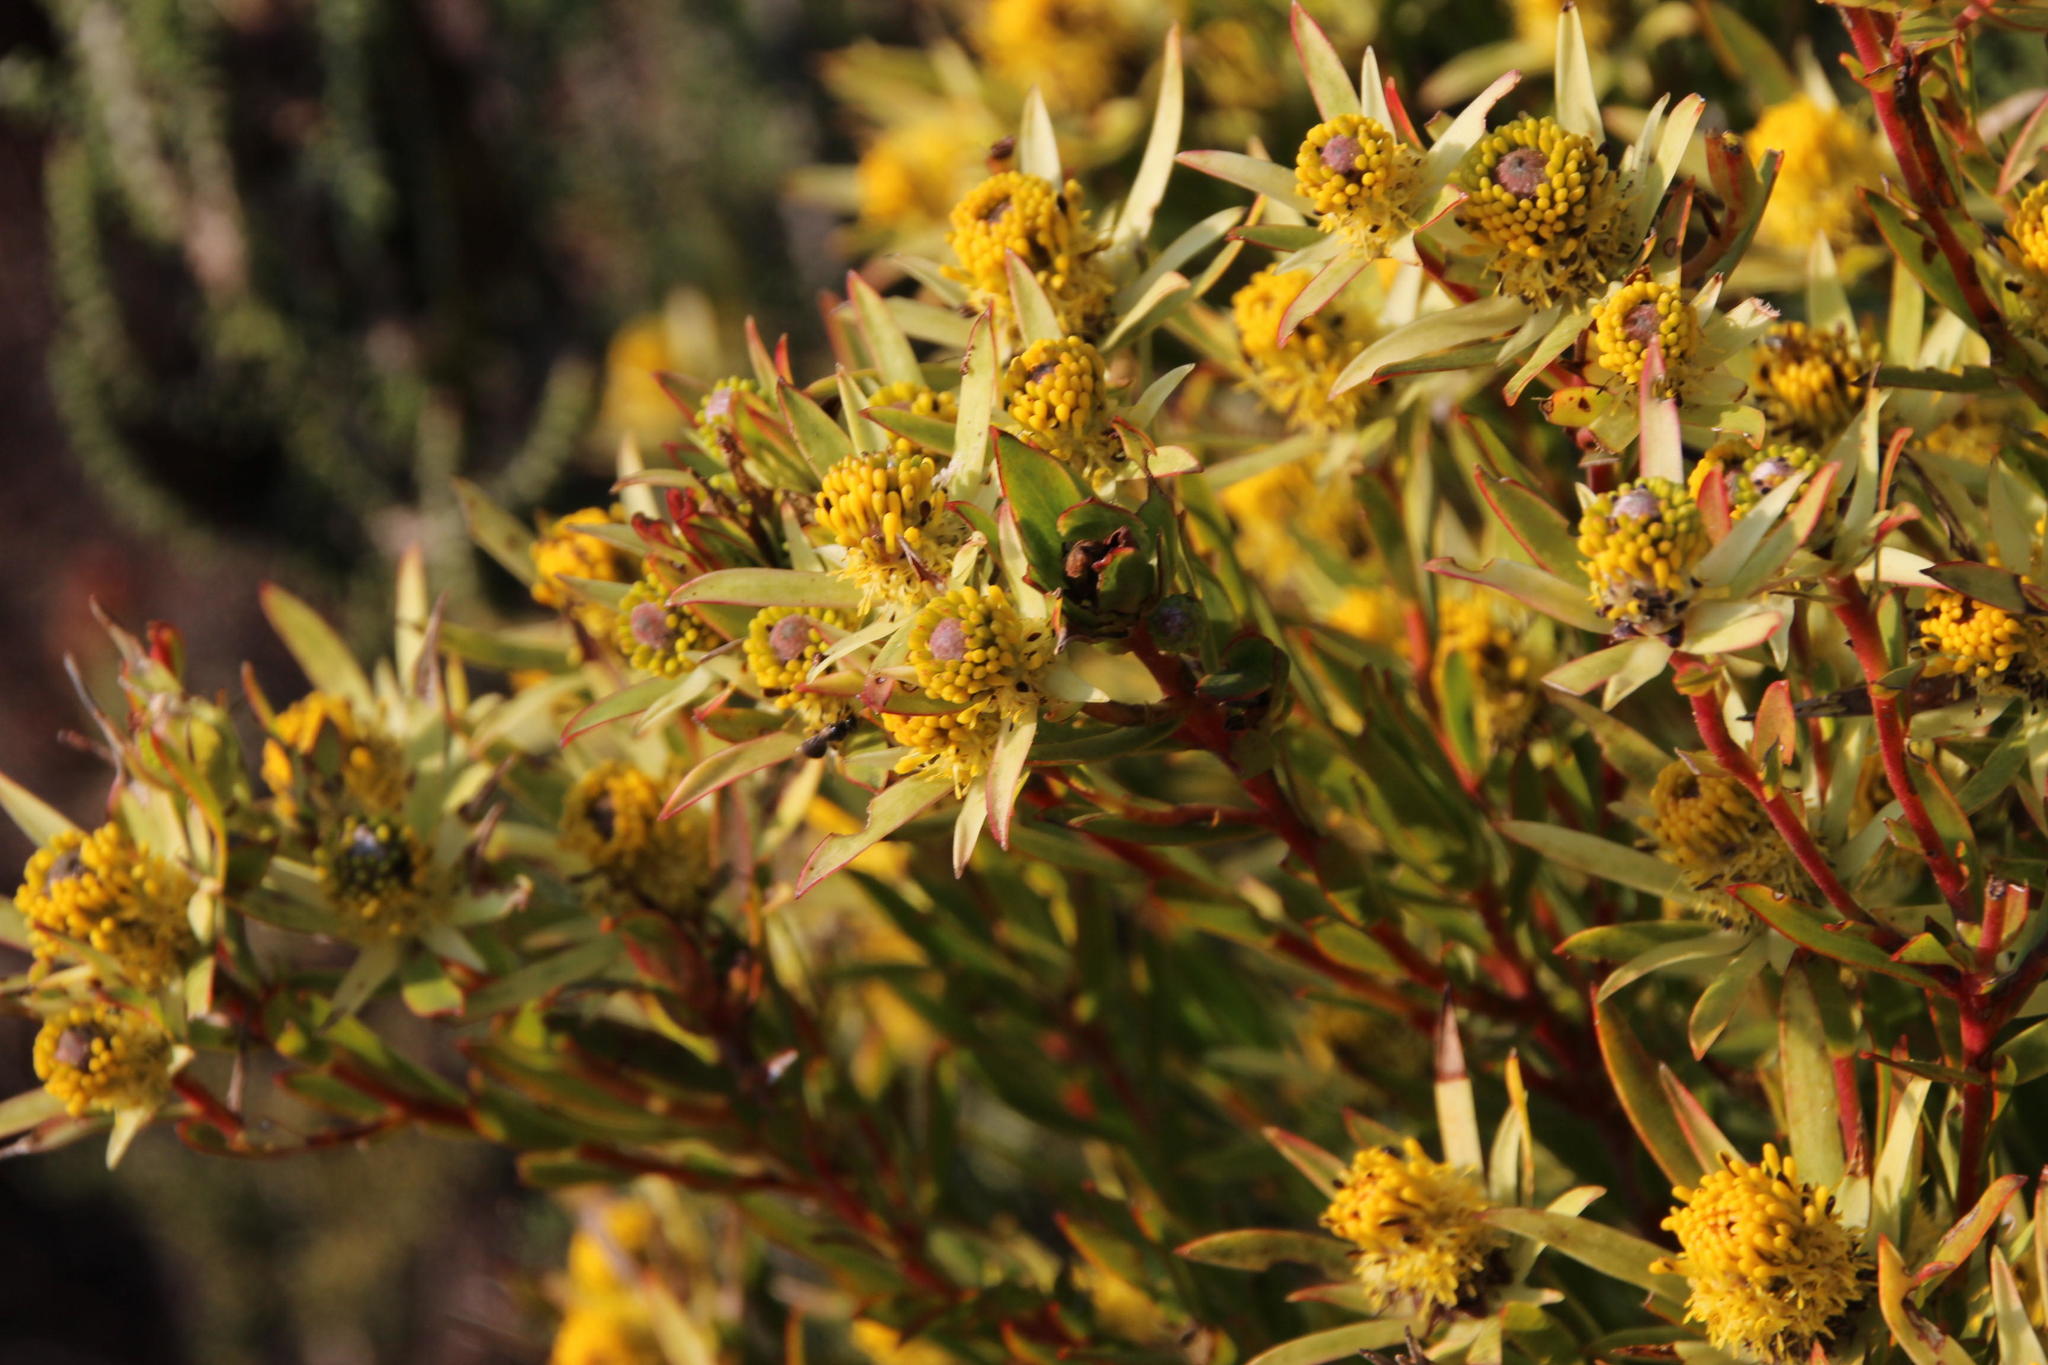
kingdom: Plantae
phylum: Tracheophyta
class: Magnoliopsida
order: Proteales
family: Proteaceae
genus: Leucadendron
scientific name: Leucadendron xanthoconus
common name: Sickle-leaf conebush
